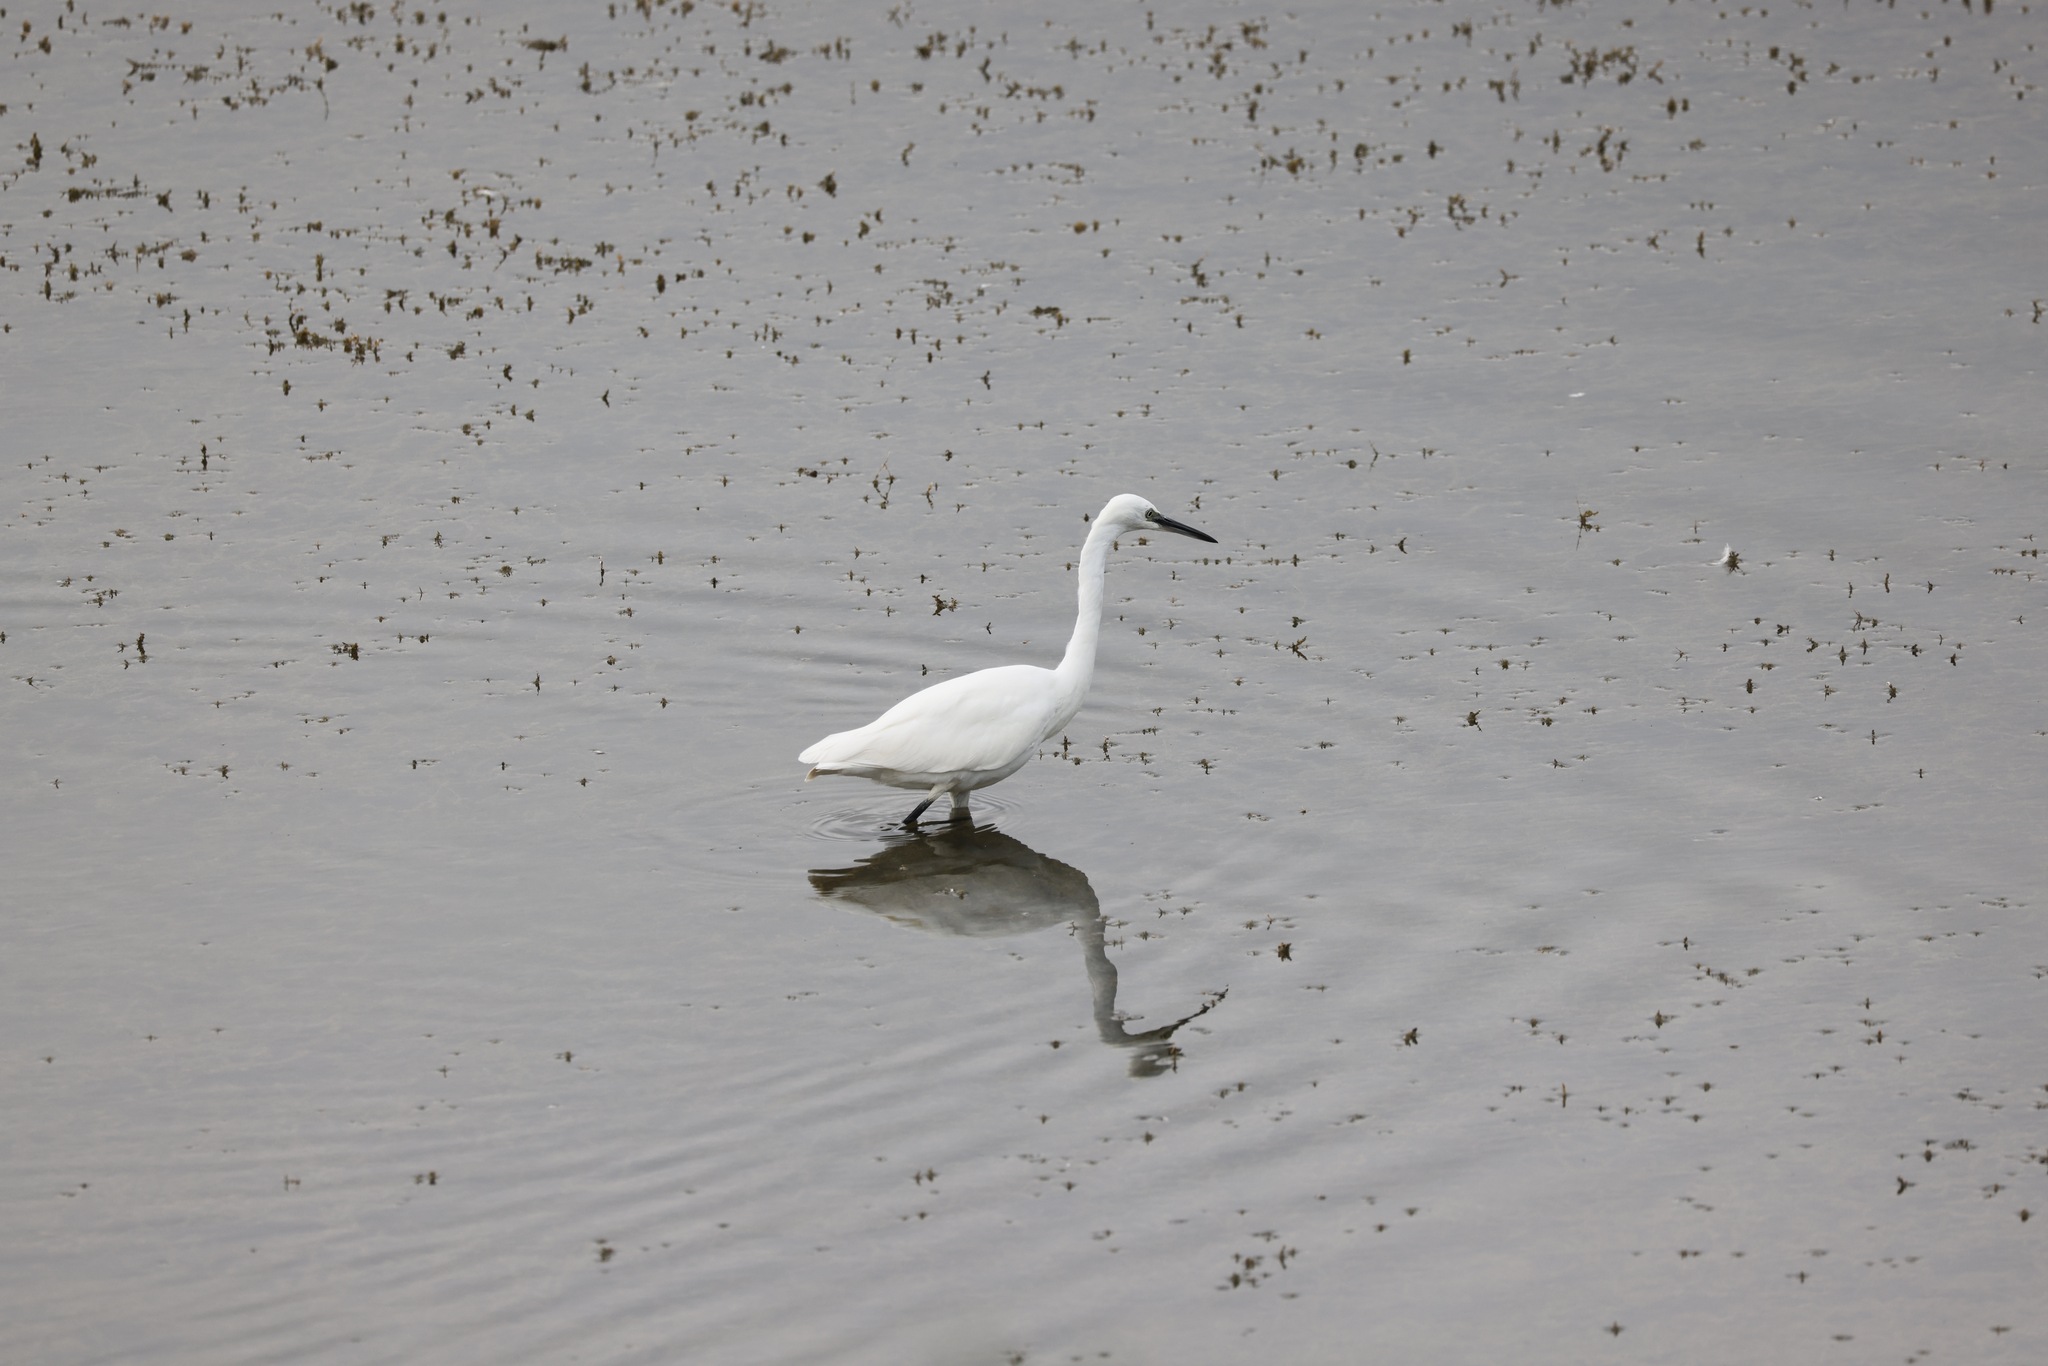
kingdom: Animalia
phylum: Chordata
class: Aves
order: Pelecaniformes
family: Ardeidae
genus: Egretta
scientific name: Egretta garzetta
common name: Little egret
